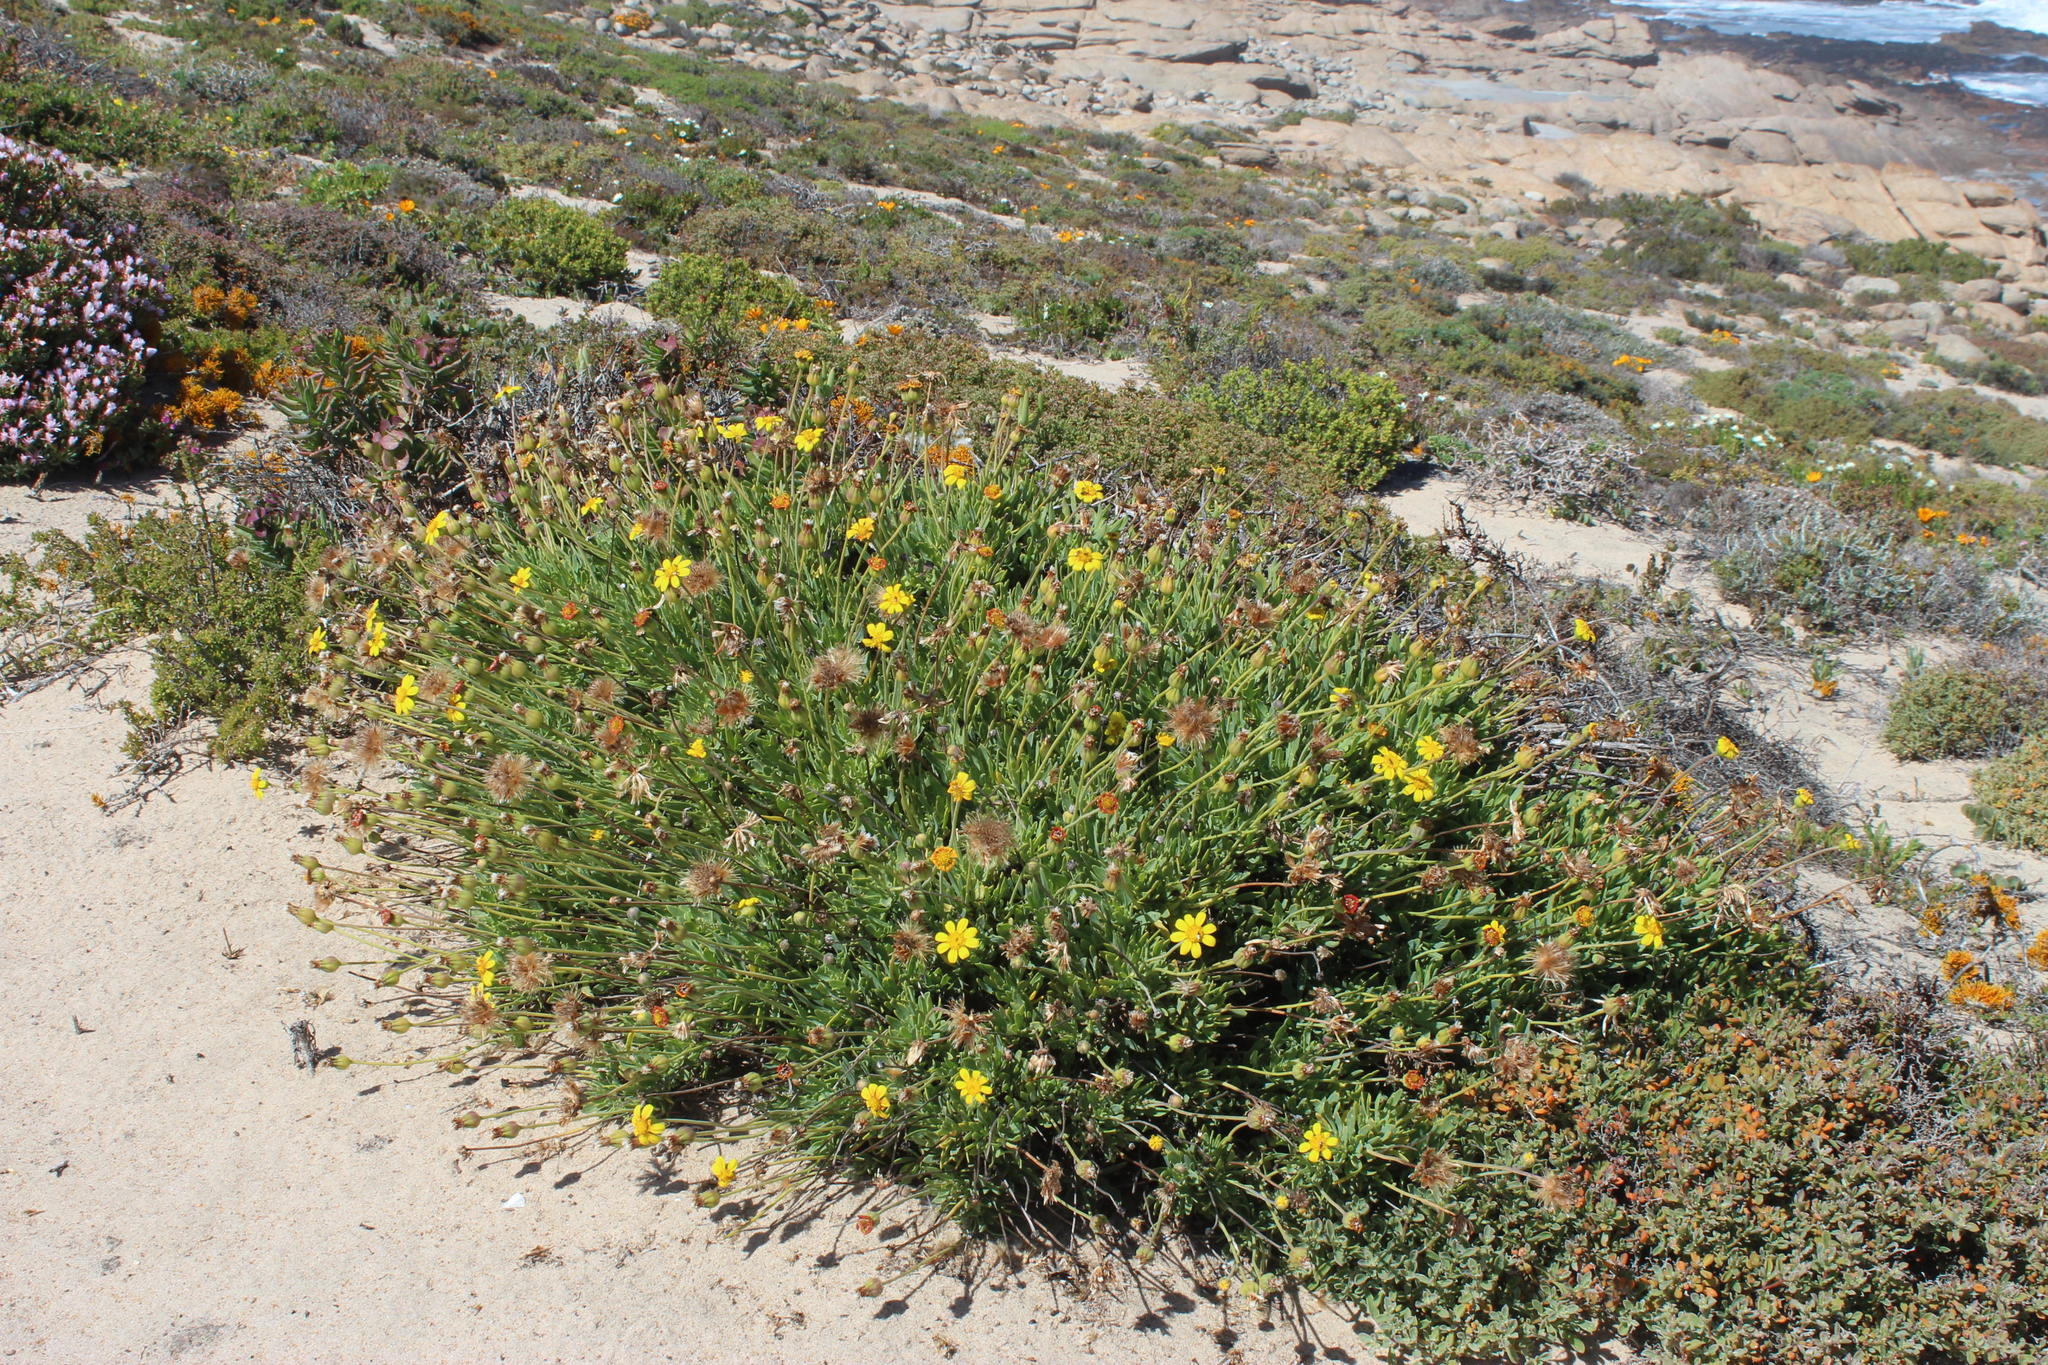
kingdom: Plantae
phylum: Tracheophyta
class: Magnoliopsida
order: Asterales
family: Asteraceae
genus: Othonna
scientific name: Othonna coronopifolia
